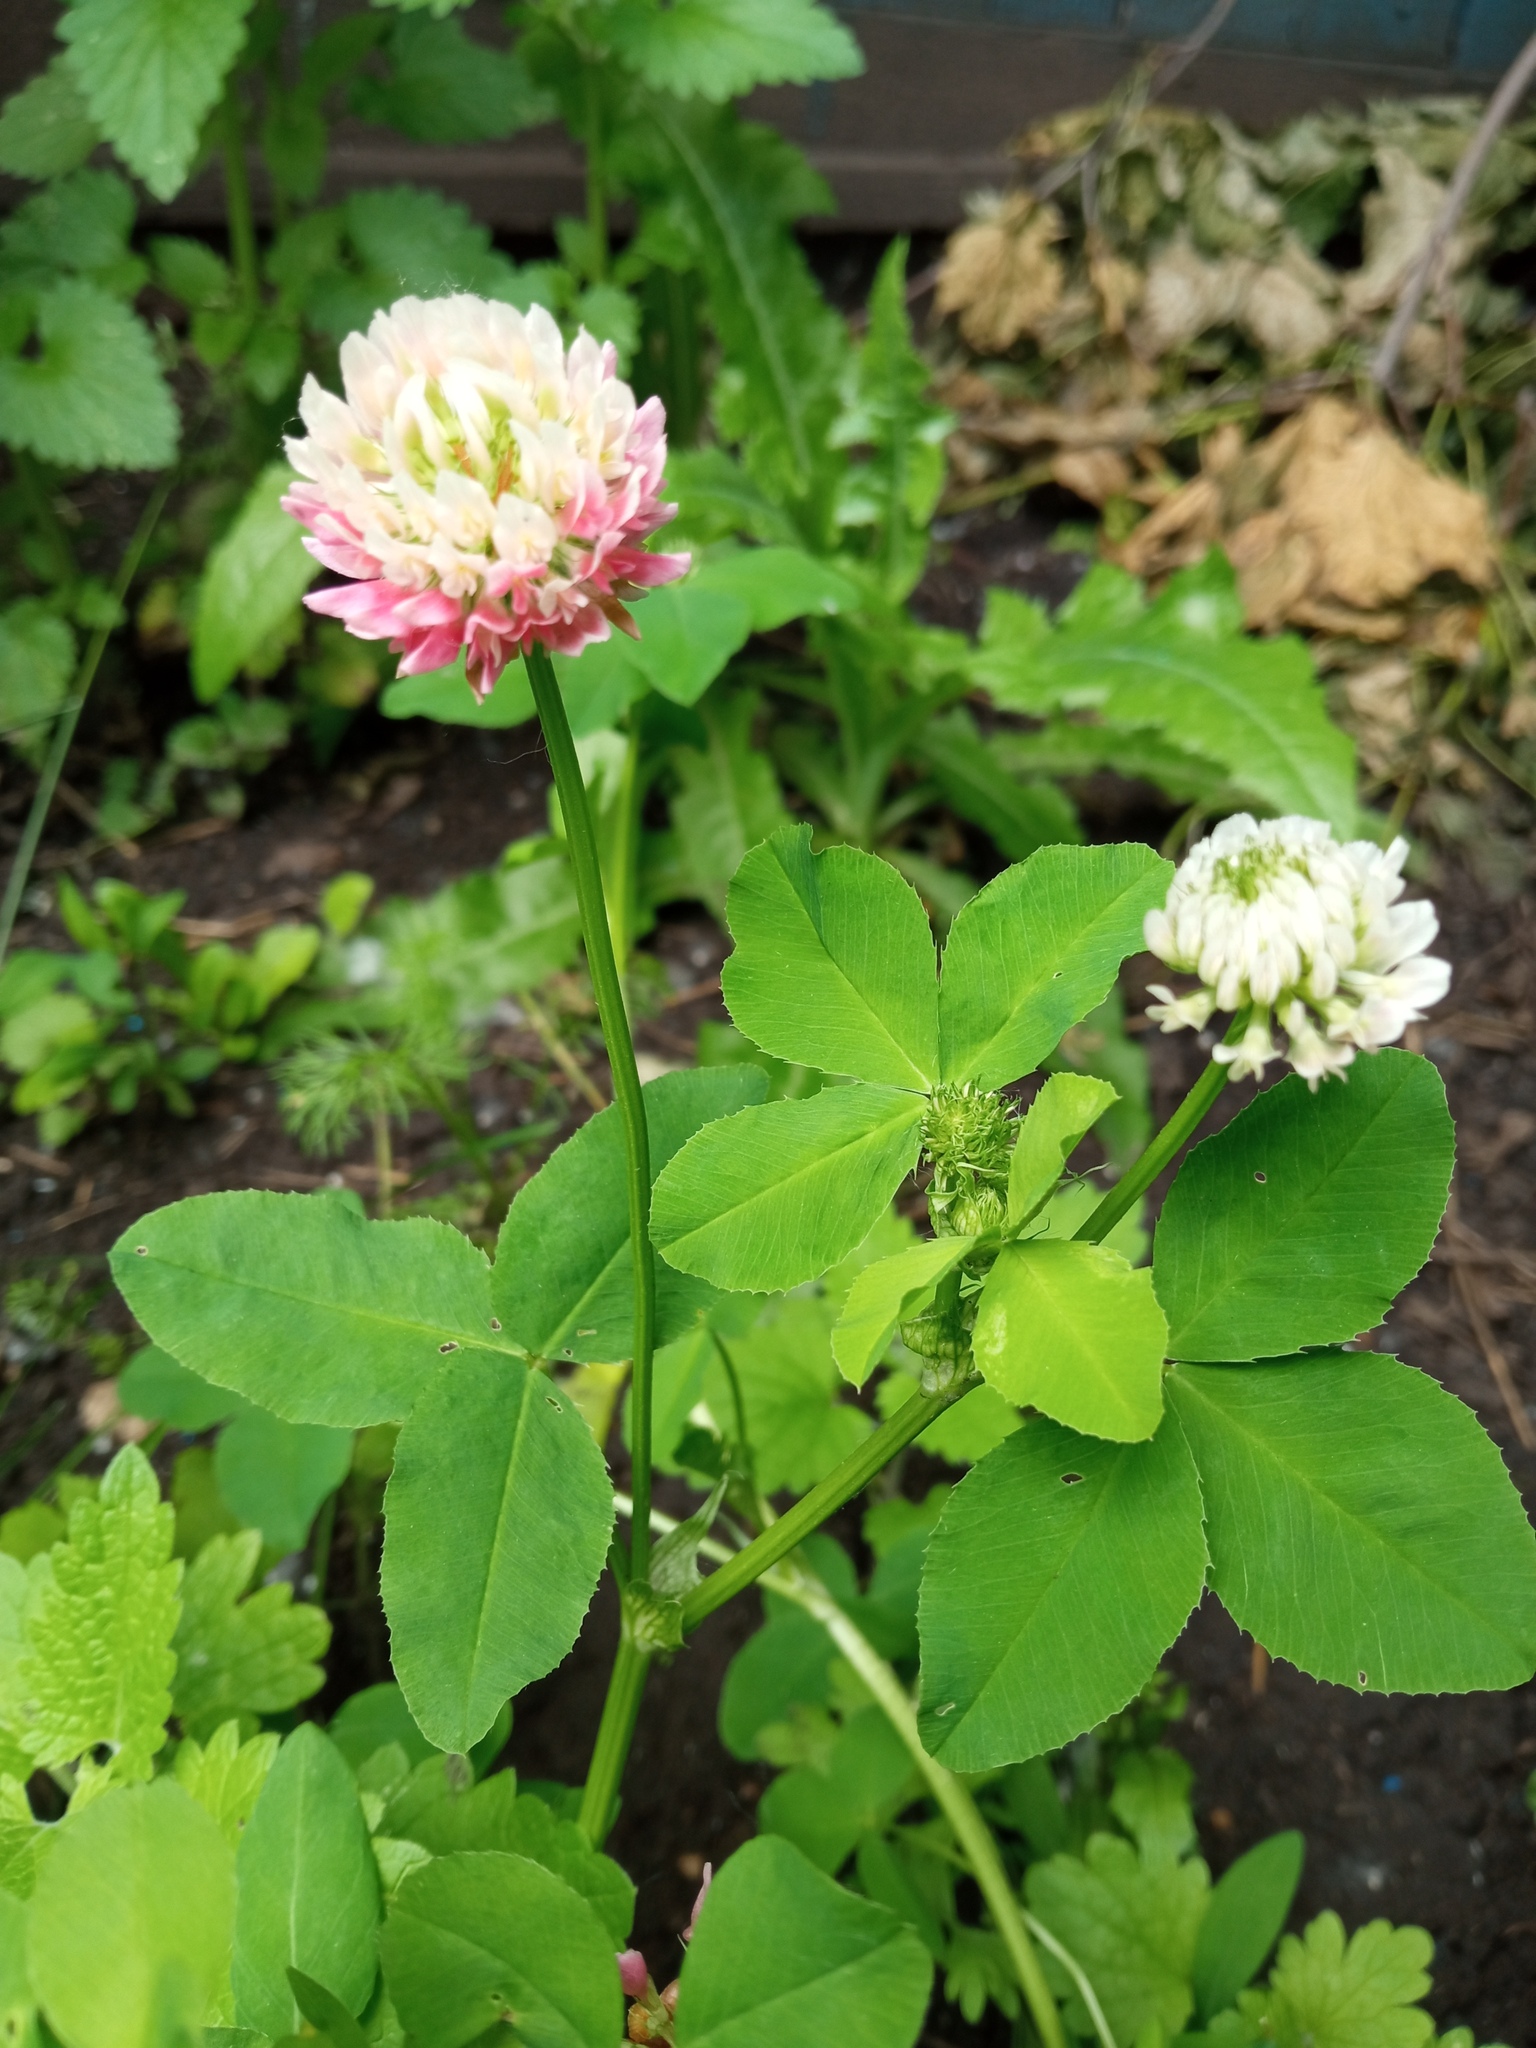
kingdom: Plantae
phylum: Tracheophyta
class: Magnoliopsida
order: Fabales
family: Fabaceae
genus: Trifolium
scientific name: Trifolium hybridum
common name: Alsike clover
